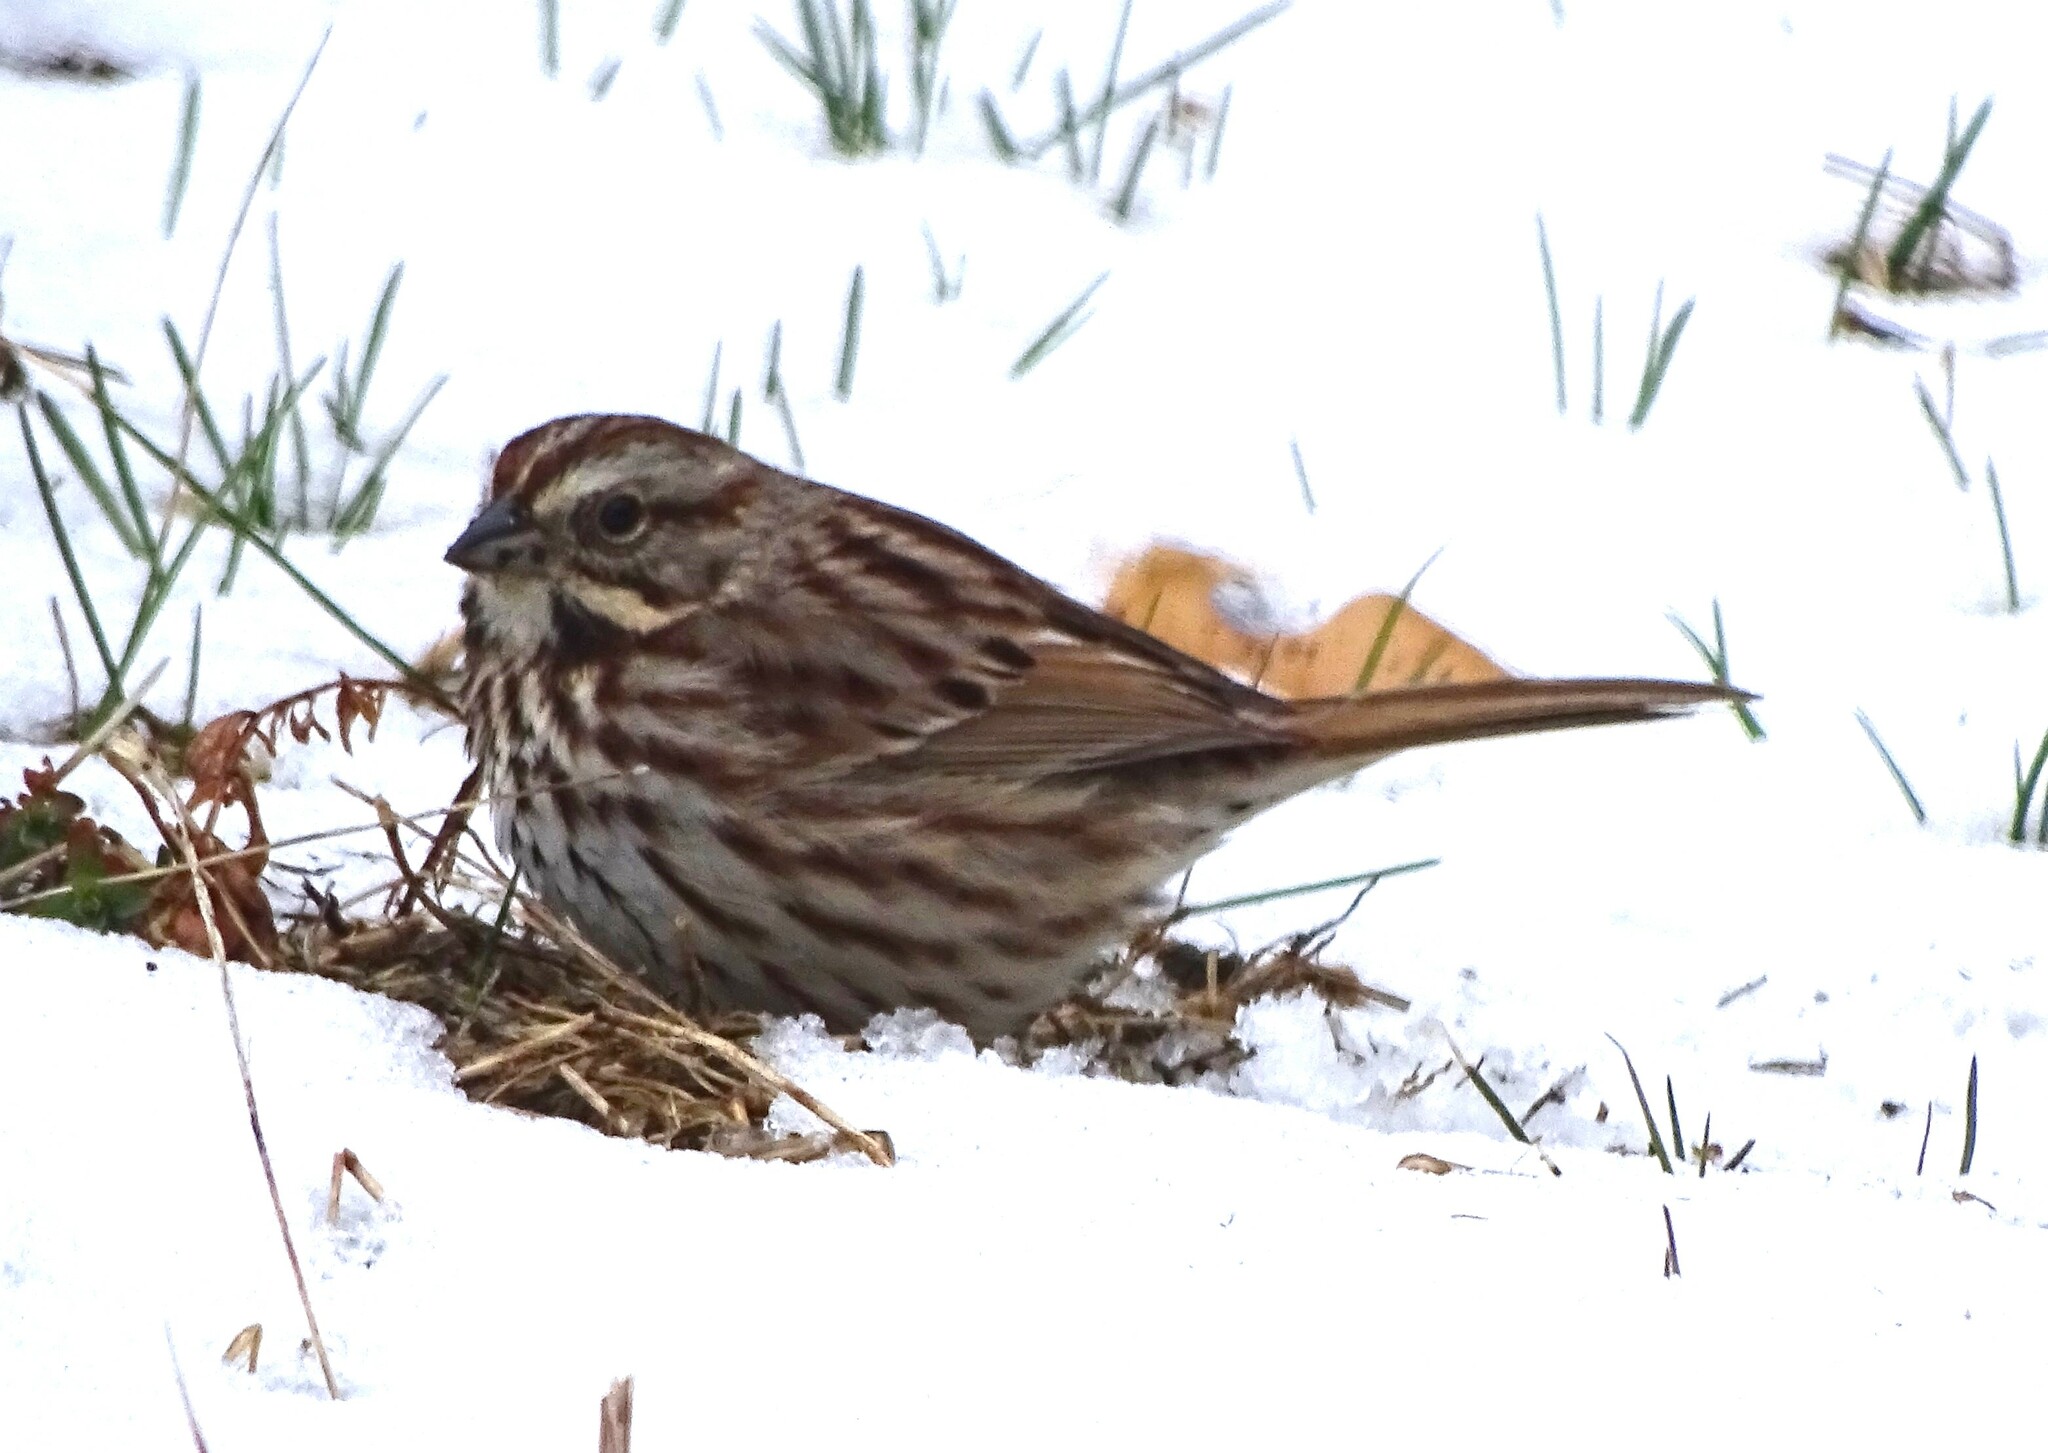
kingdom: Animalia
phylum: Chordata
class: Aves
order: Passeriformes
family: Passerellidae
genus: Melospiza
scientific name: Melospiza melodia
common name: Song sparrow
